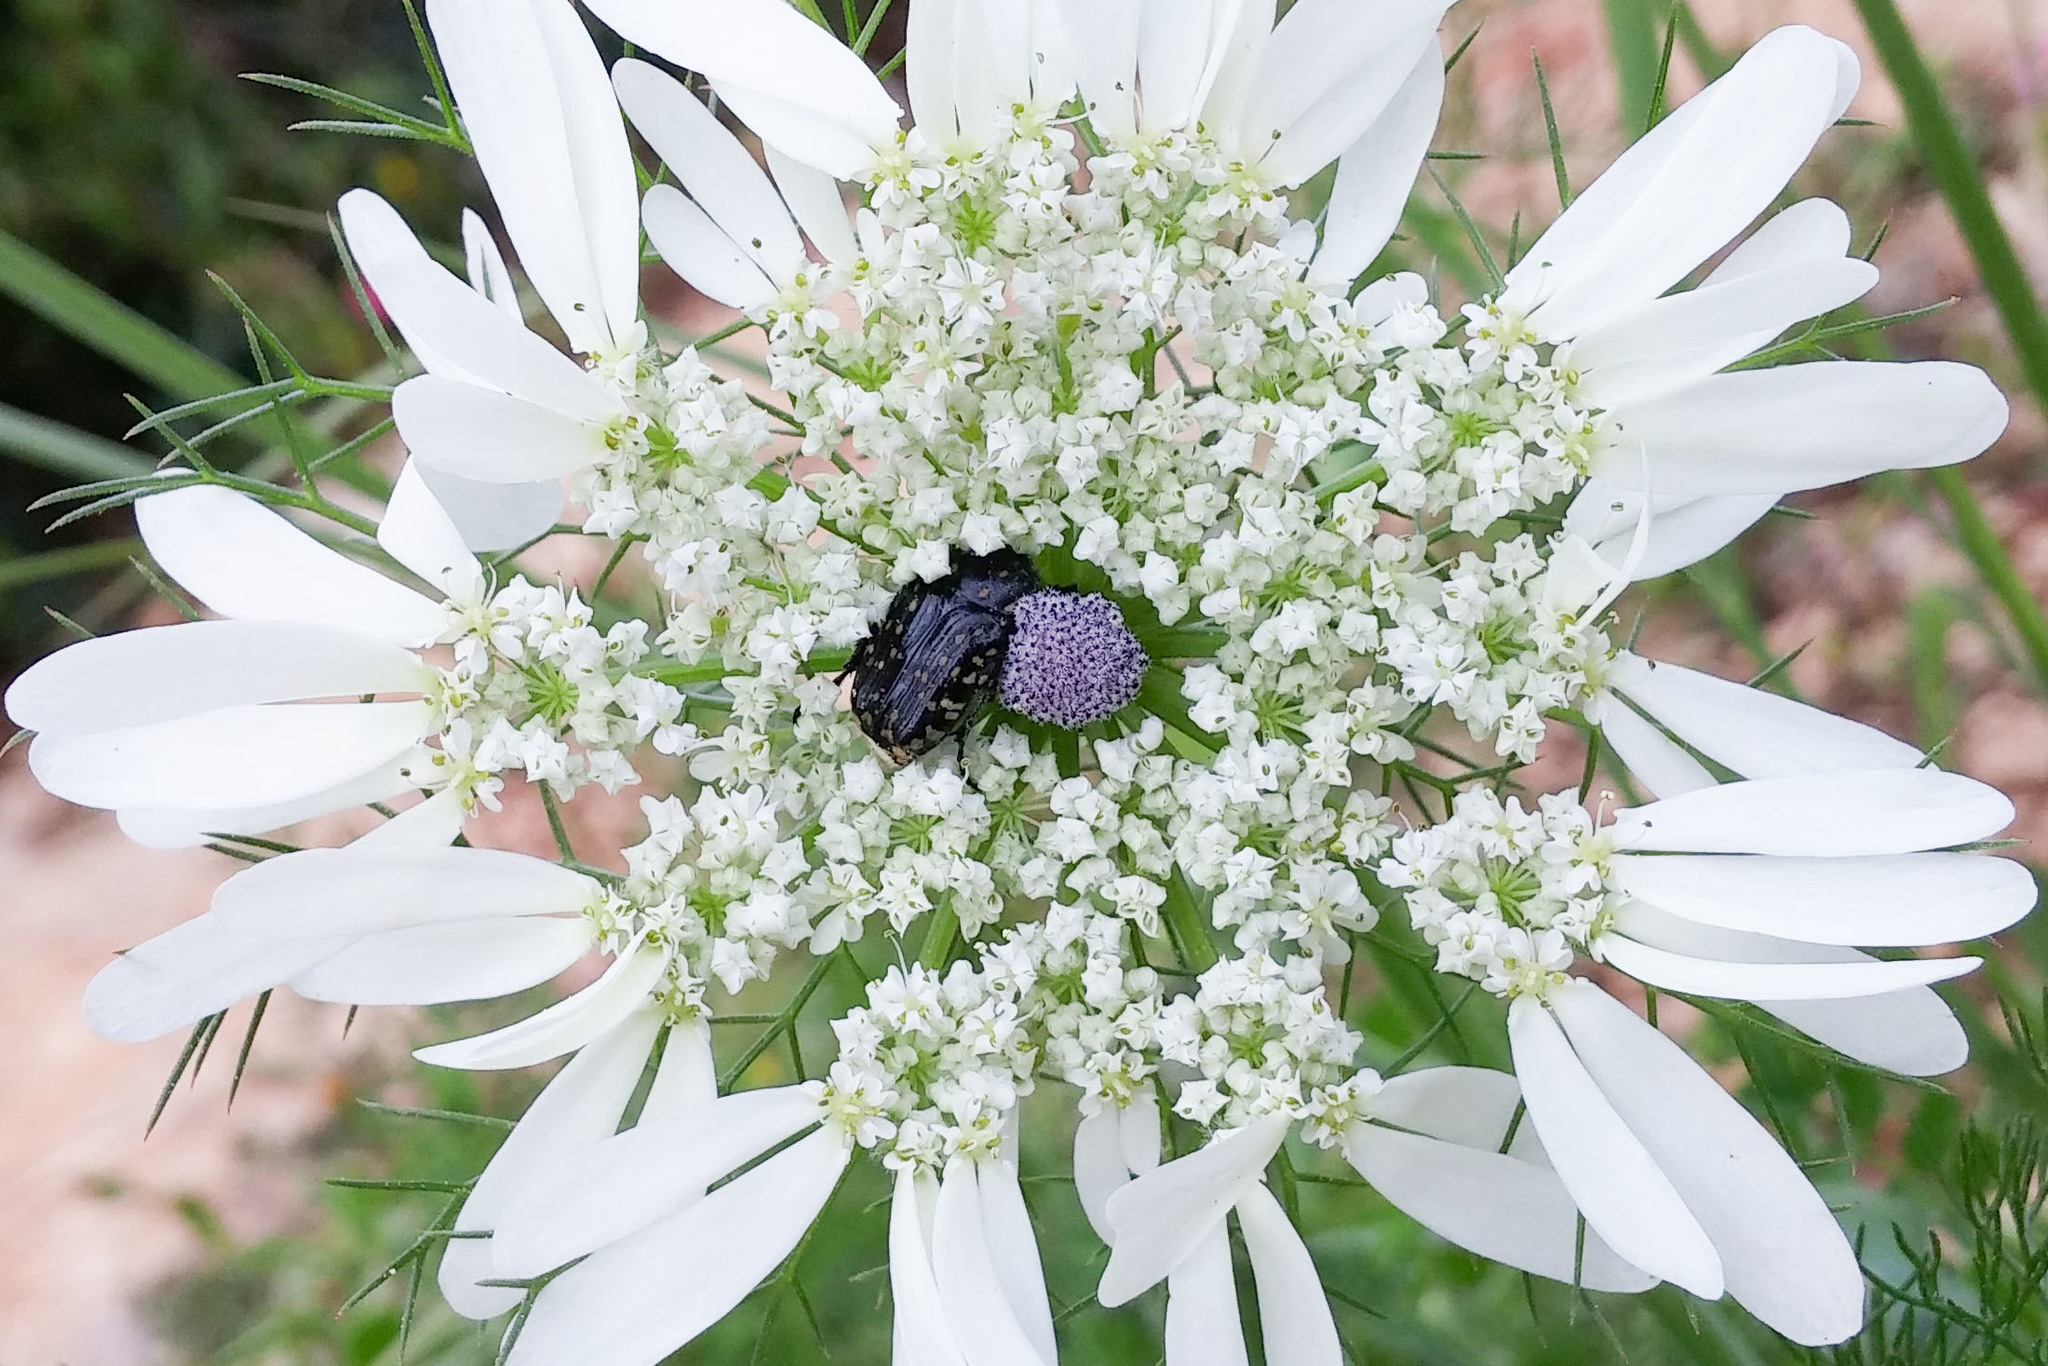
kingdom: Animalia
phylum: Arthropoda
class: Insecta
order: Coleoptera
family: Scarabaeidae
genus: Oxythyrea
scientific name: Oxythyrea noemi
